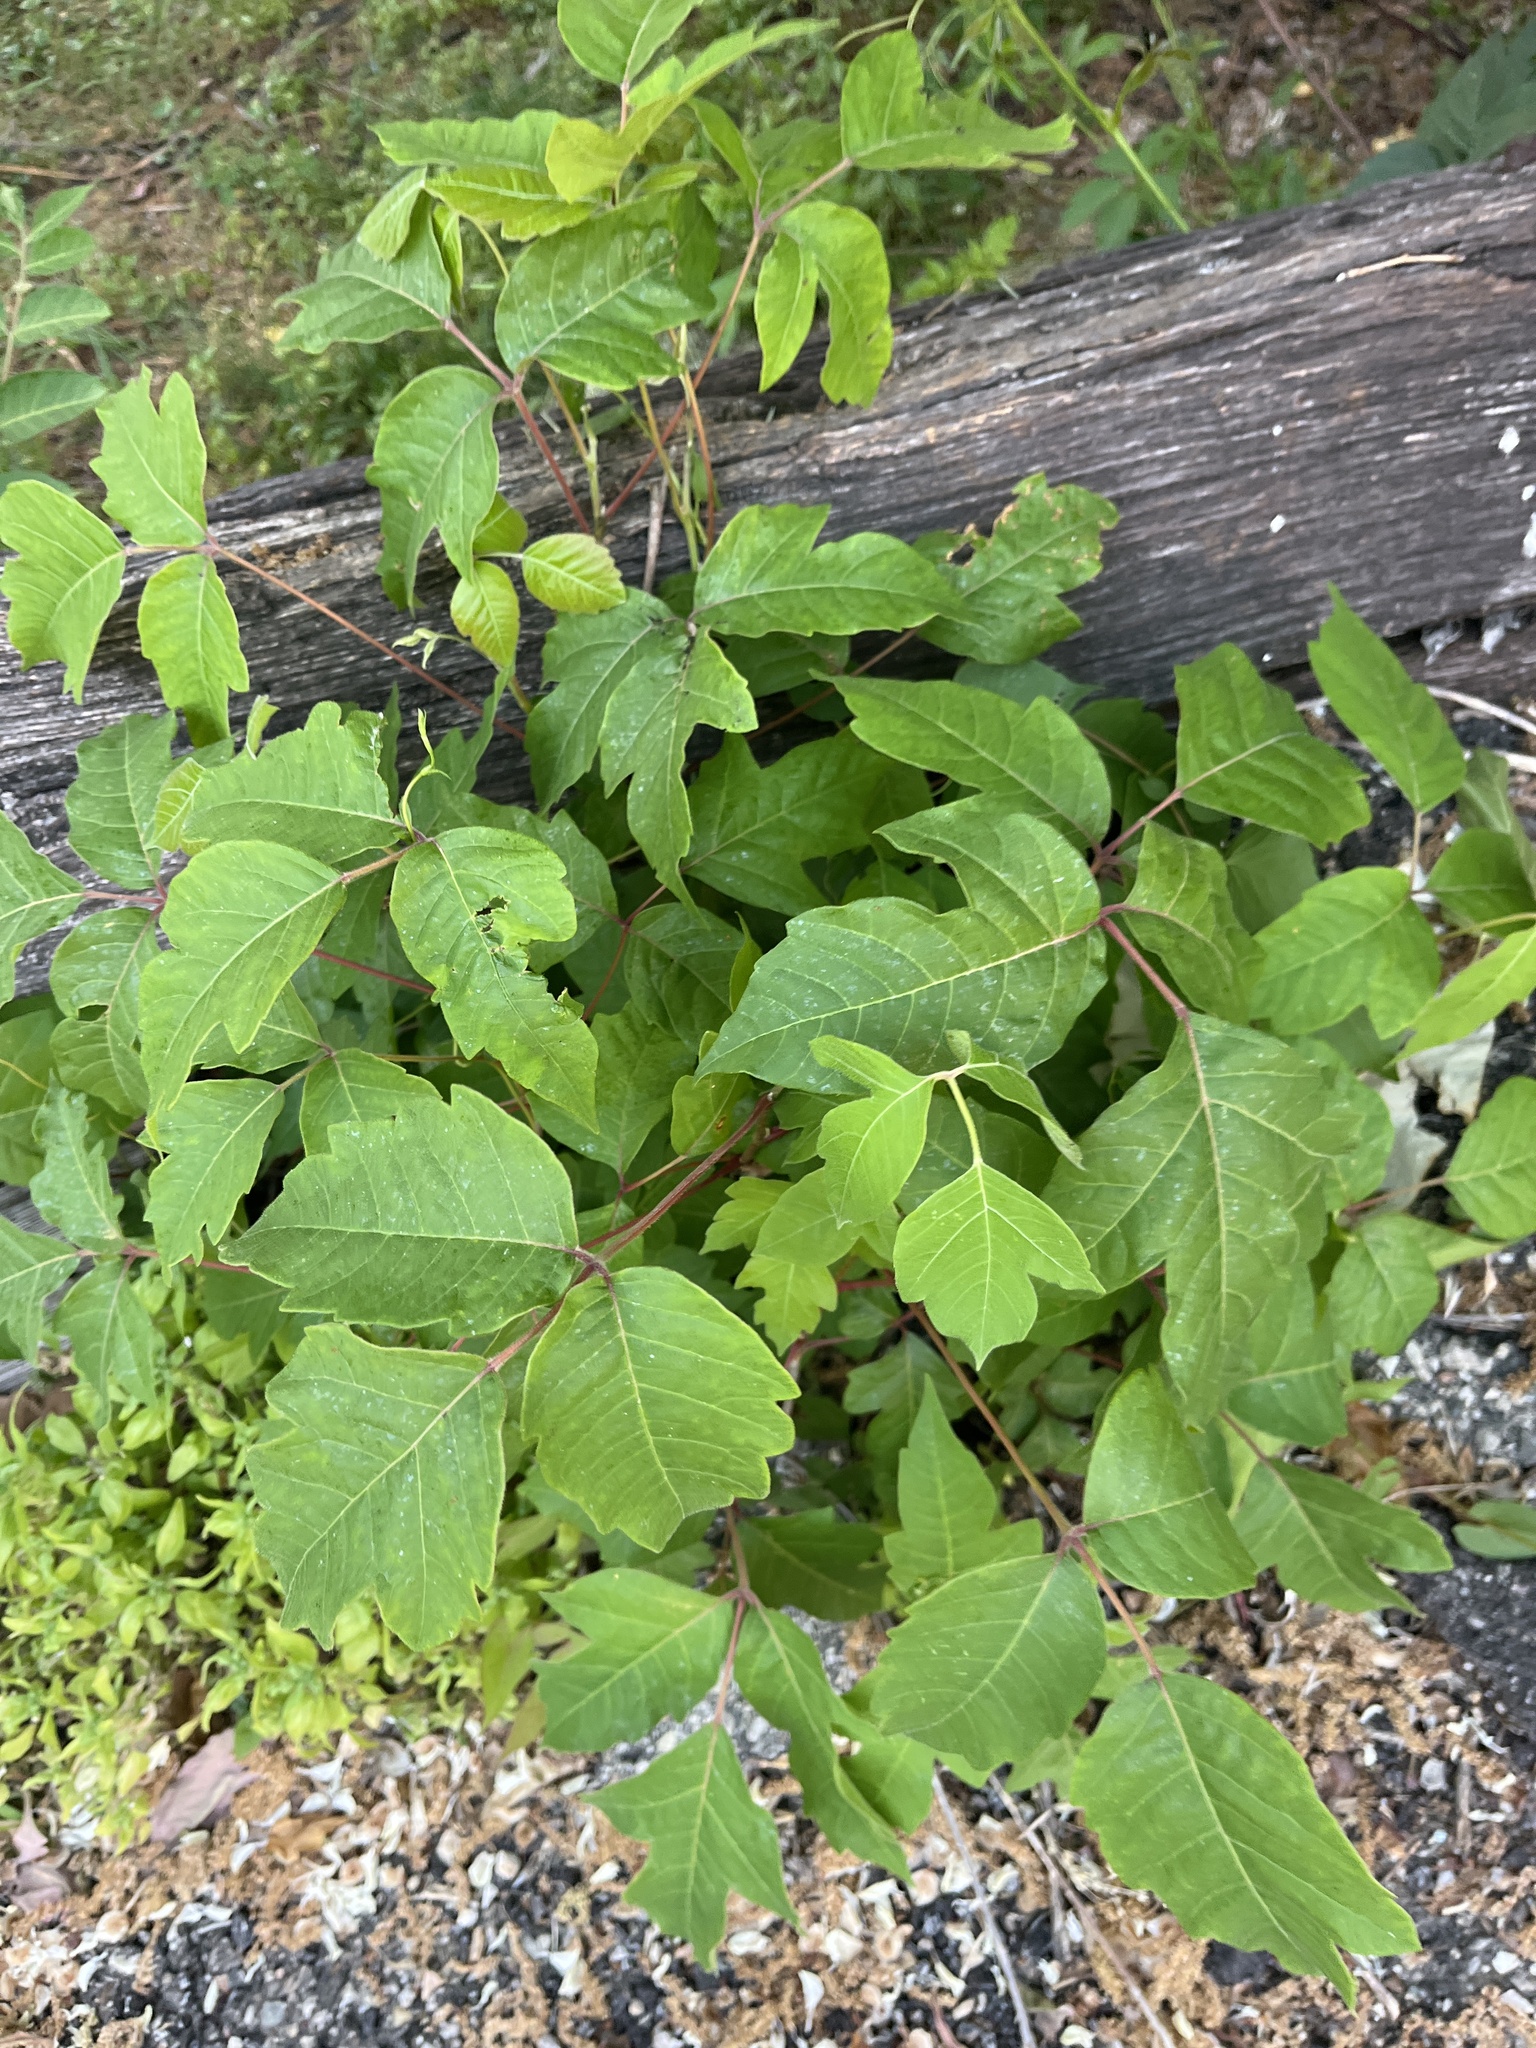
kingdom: Plantae
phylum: Tracheophyta
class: Magnoliopsida
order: Sapindales
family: Anacardiaceae
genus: Toxicodendron
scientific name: Toxicodendron radicans
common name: Poison ivy
